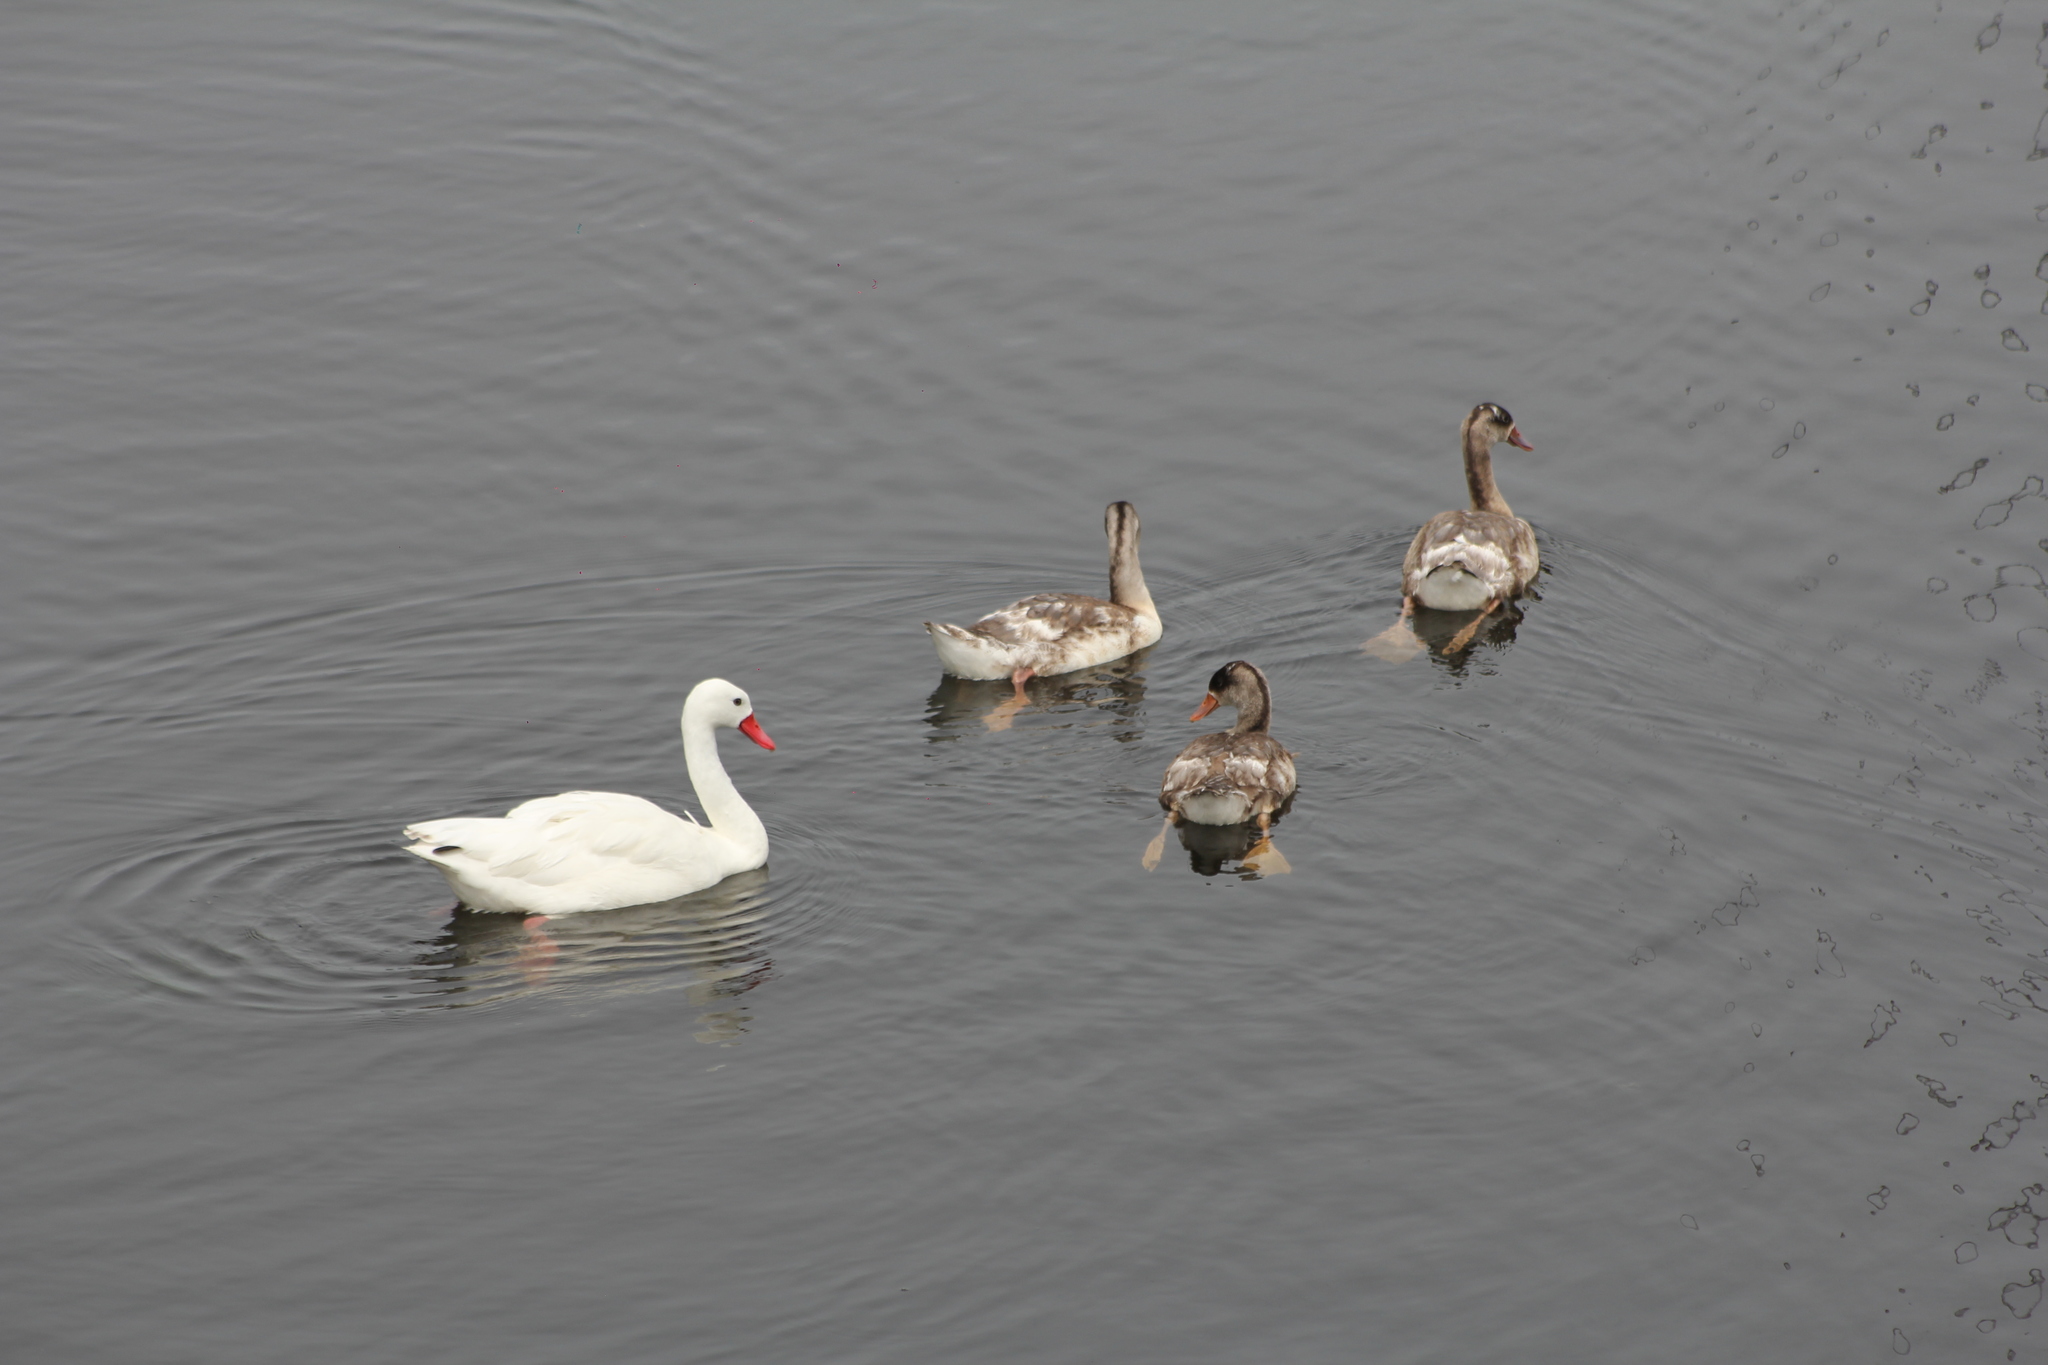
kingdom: Animalia
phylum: Chordata
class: Aves
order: Anseriformes
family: Anatidae
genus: Coscoroba
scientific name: Coscoroba coscoroba
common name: Coscoroba swan
